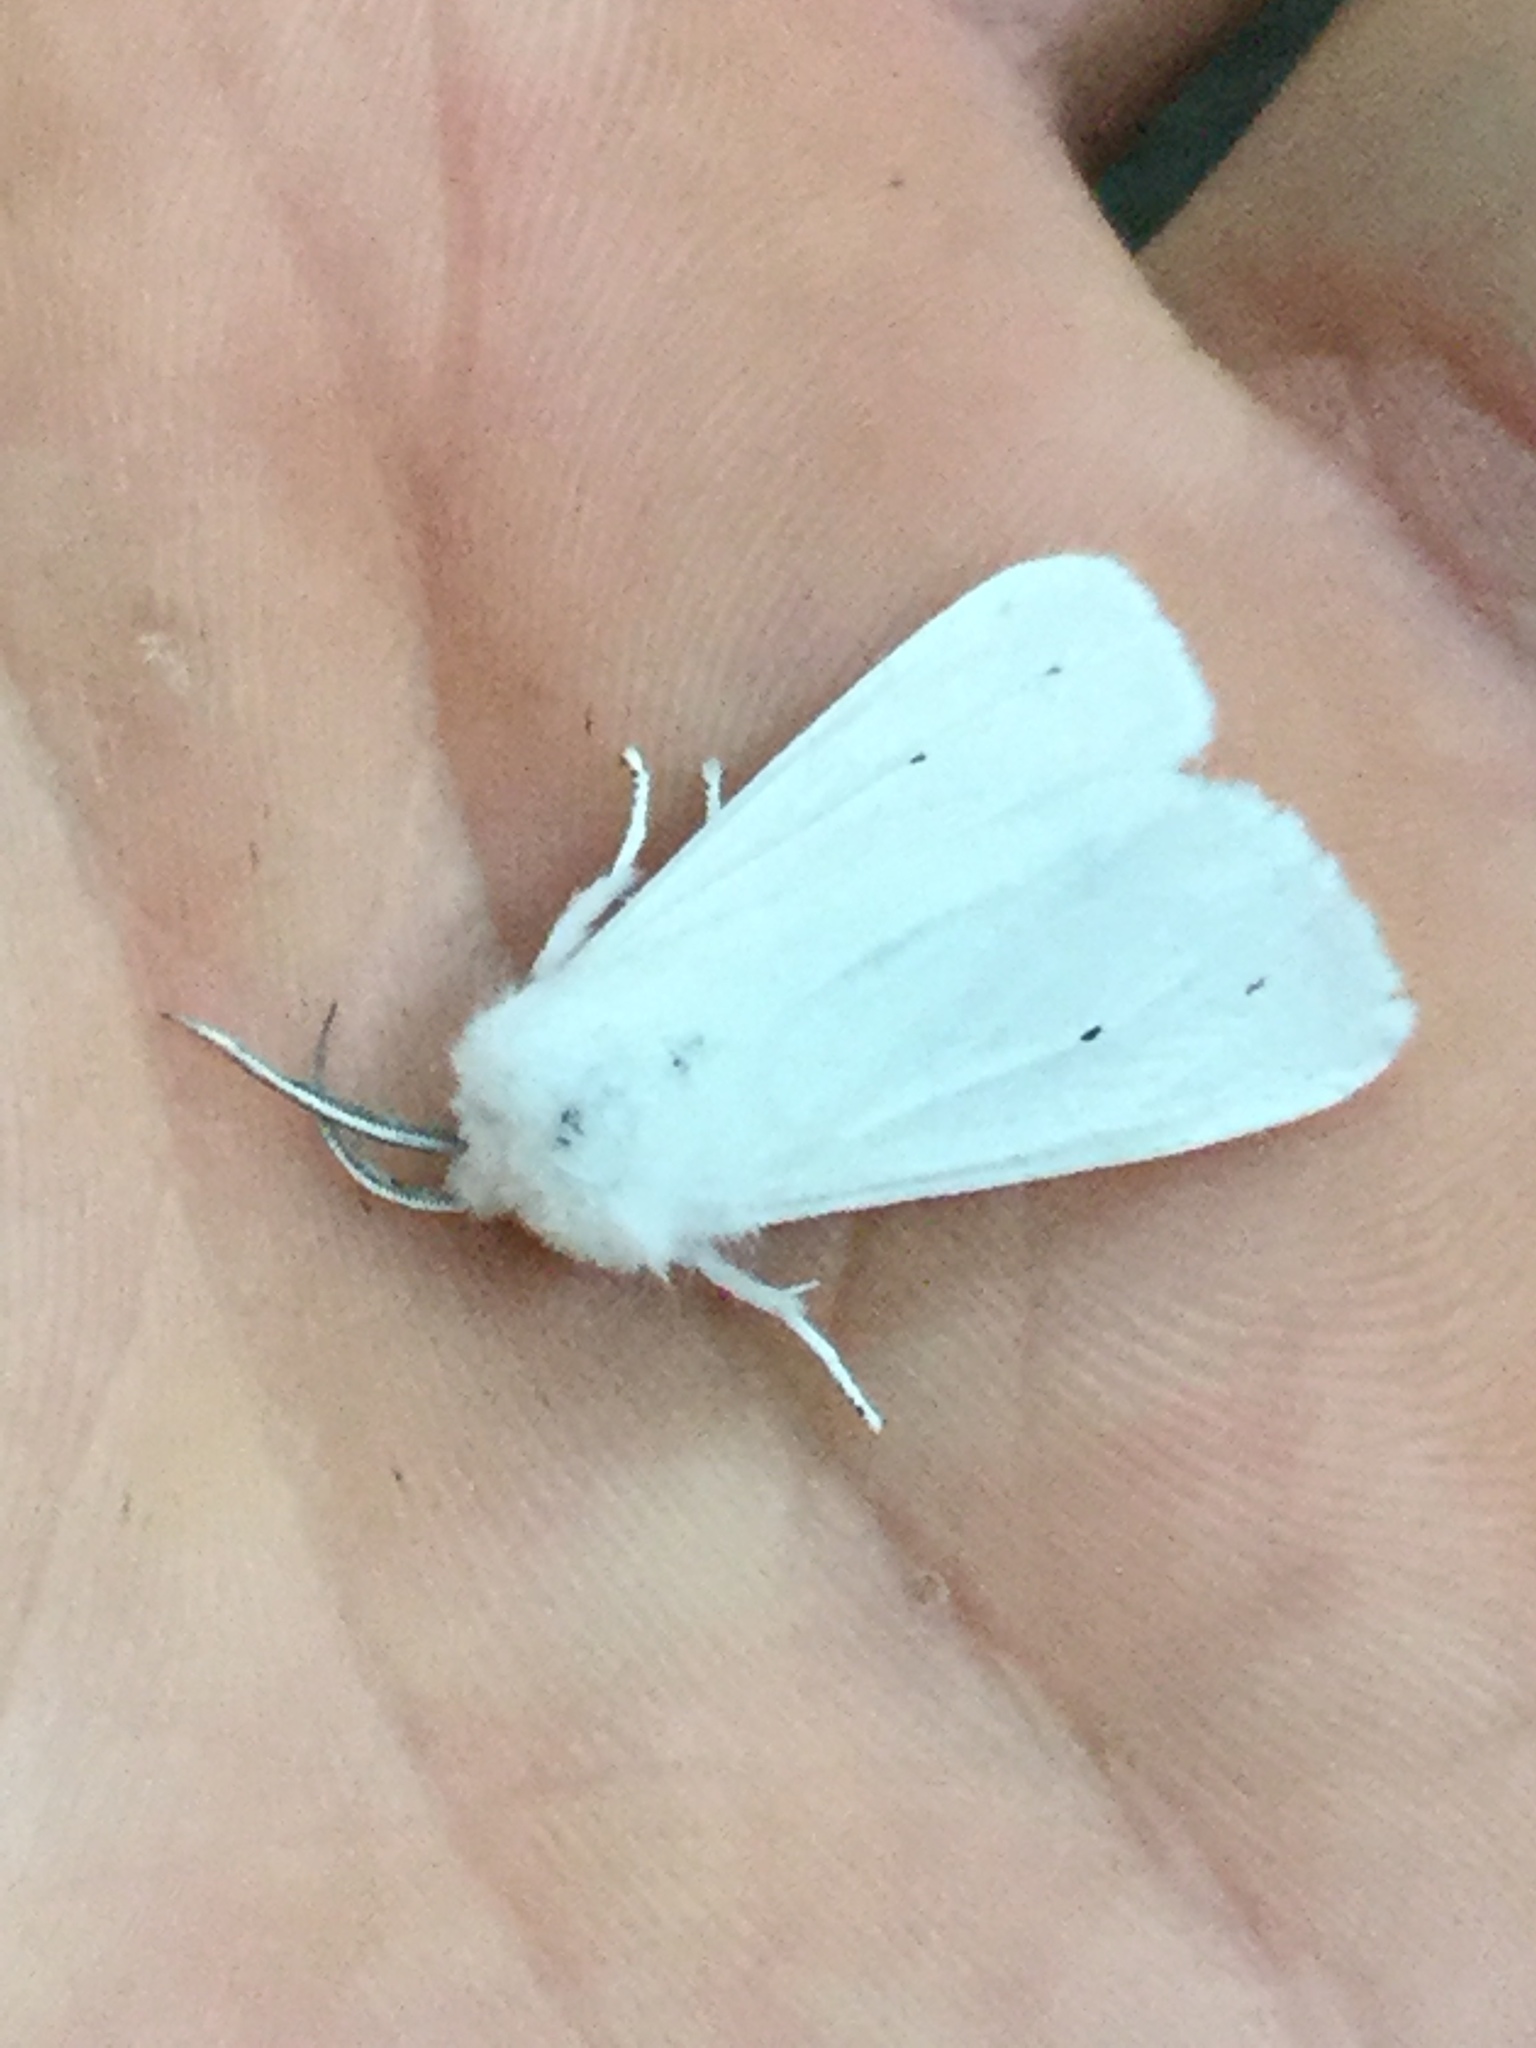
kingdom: Animalia
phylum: Arthropoda
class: Insecta
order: Lepidoptera
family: Erebidae
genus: Spilosoma
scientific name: Spilosoma virginica
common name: Virginia tiger moth
